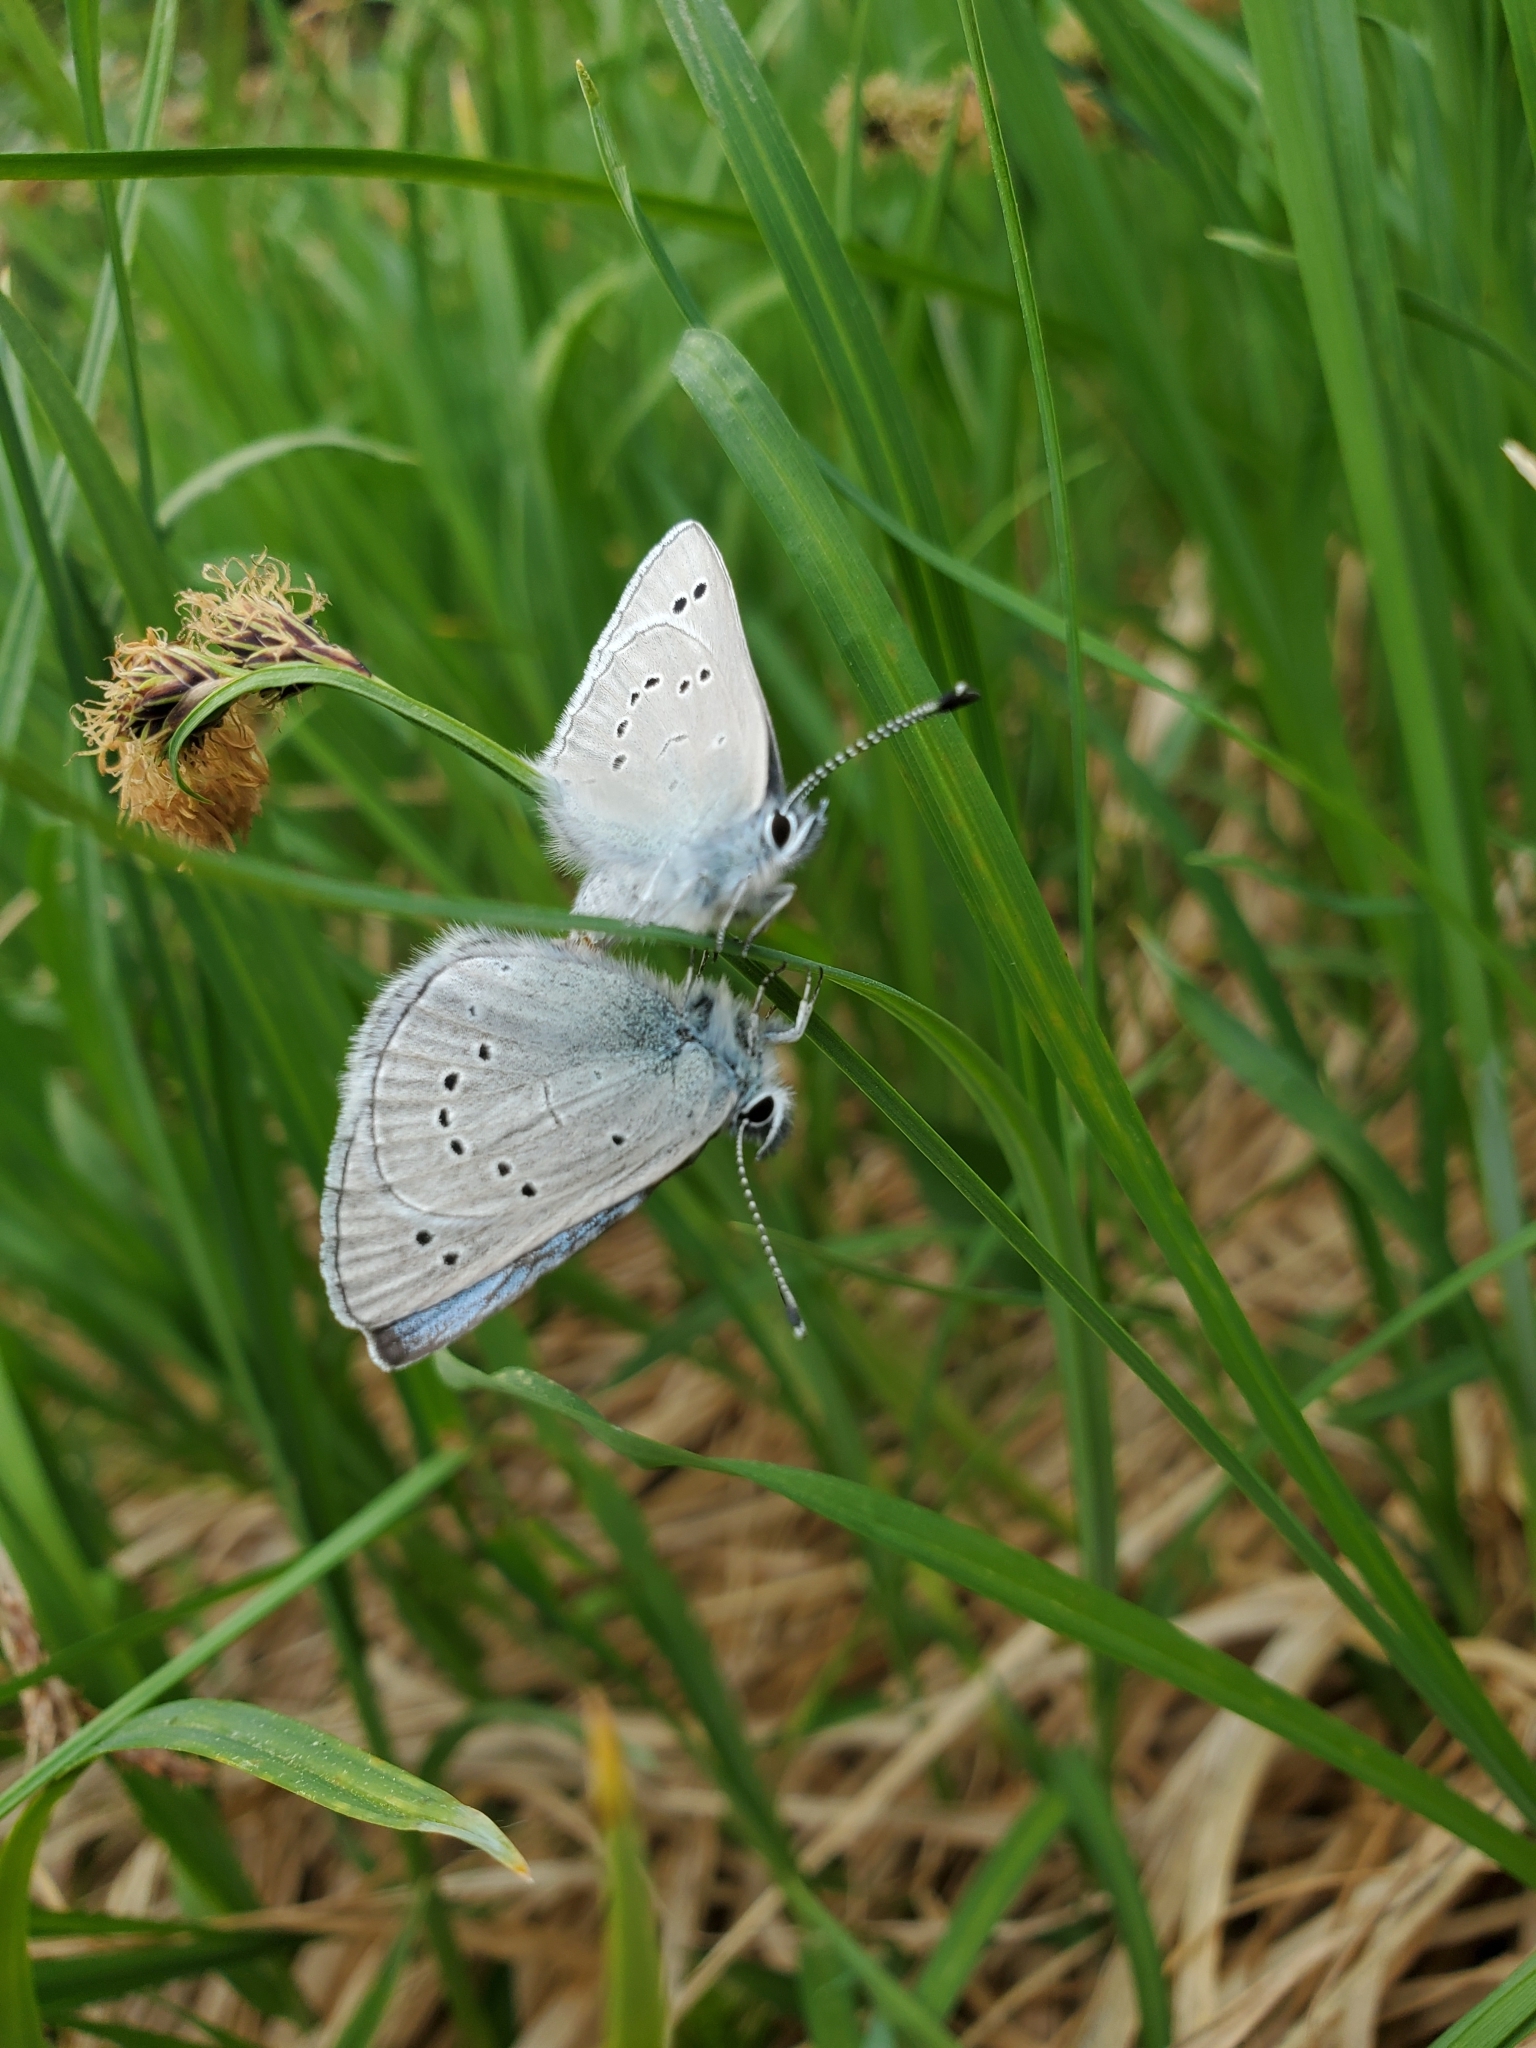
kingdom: Animalia
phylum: Arthropoda
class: Insecta
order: Lepidoptera
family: Lycaenidae
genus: Glaucopsyche
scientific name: Glaucopsyche lygdamus
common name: Silvery blue
